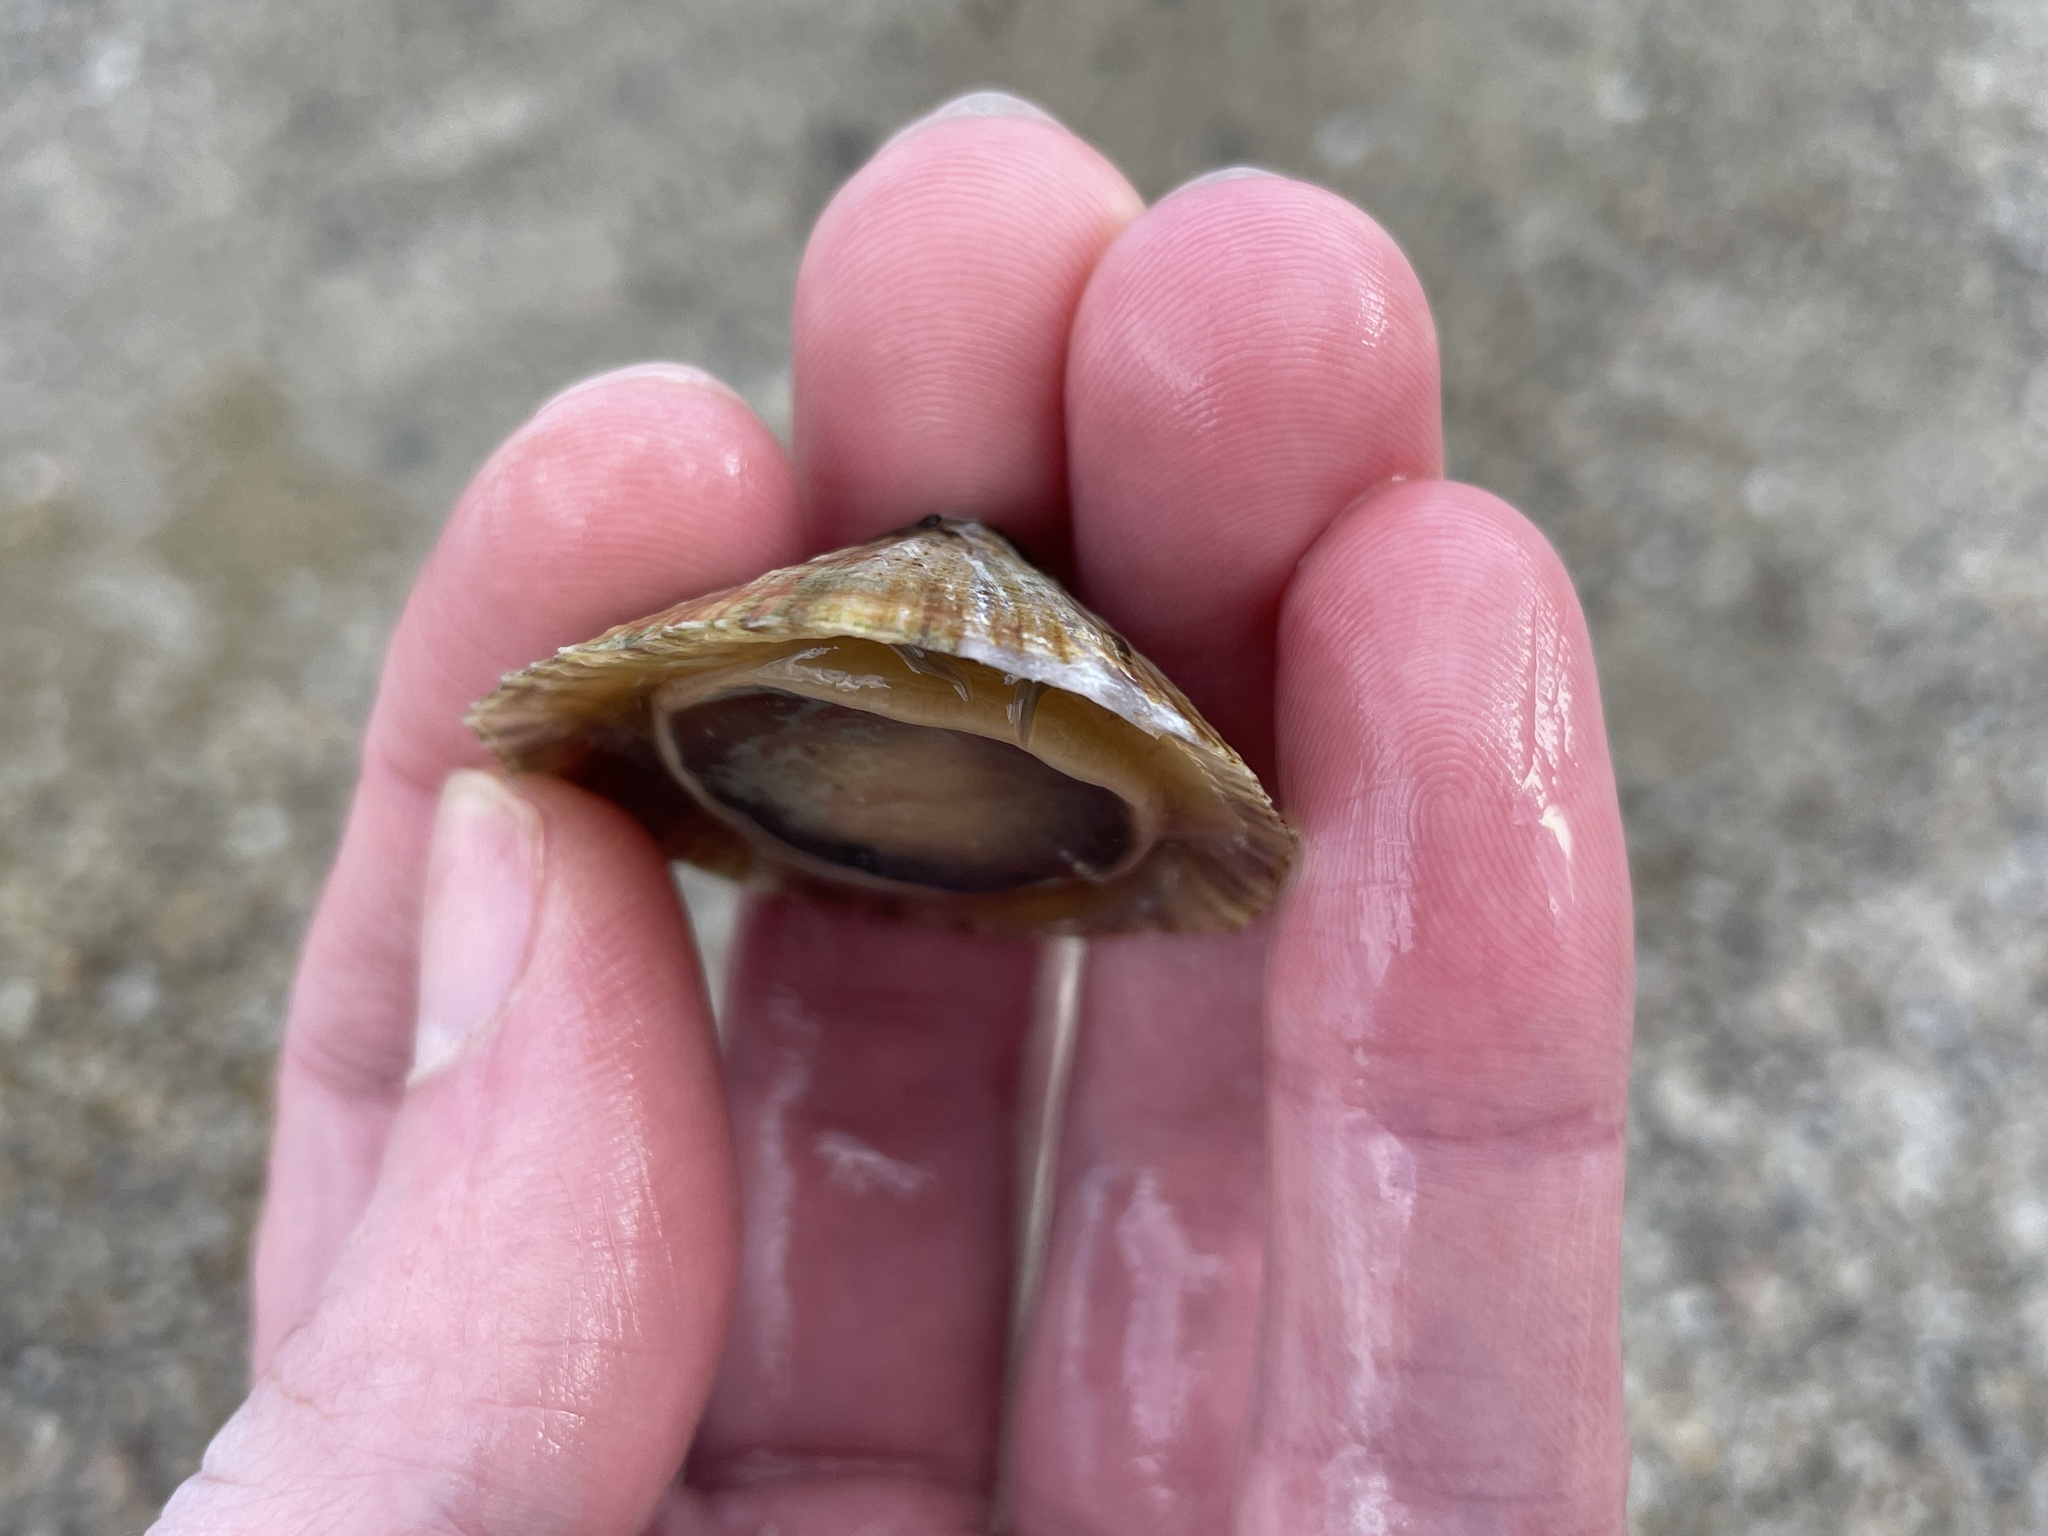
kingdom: Animalia
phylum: Mollusca
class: Gastropoda
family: Patellidae
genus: Patella
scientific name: Patella caerulea
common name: Mediterranean limpet
